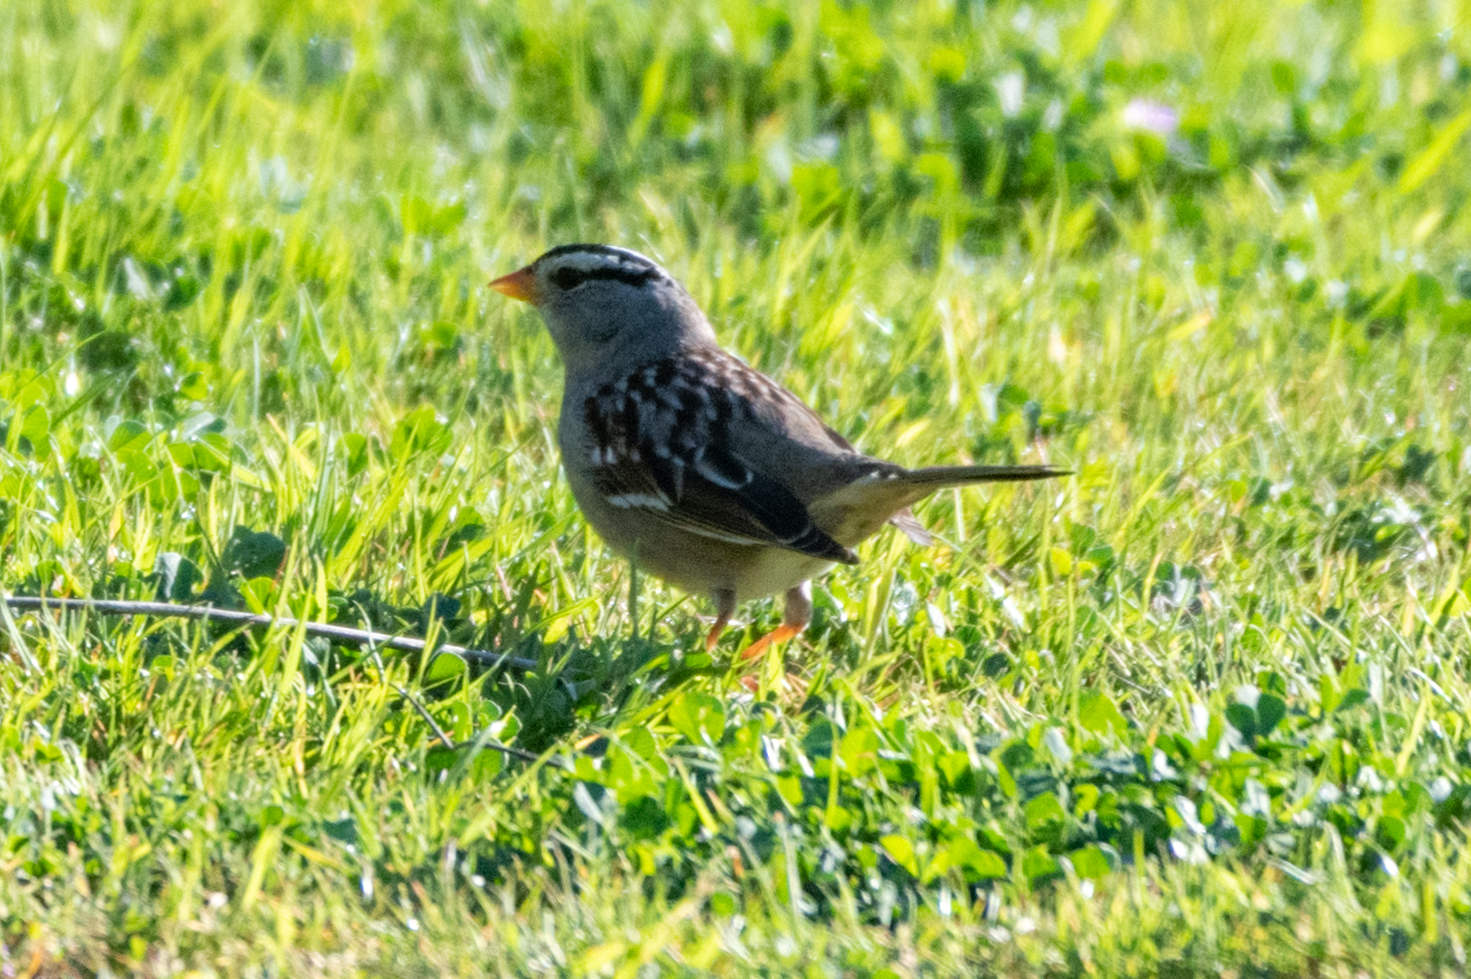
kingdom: Animalia
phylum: Chordata
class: Aves
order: Passeriformes
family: Passerellidae
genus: Zonotrichia
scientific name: Zonotrichia leucophrys
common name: White-crowned sparrow
